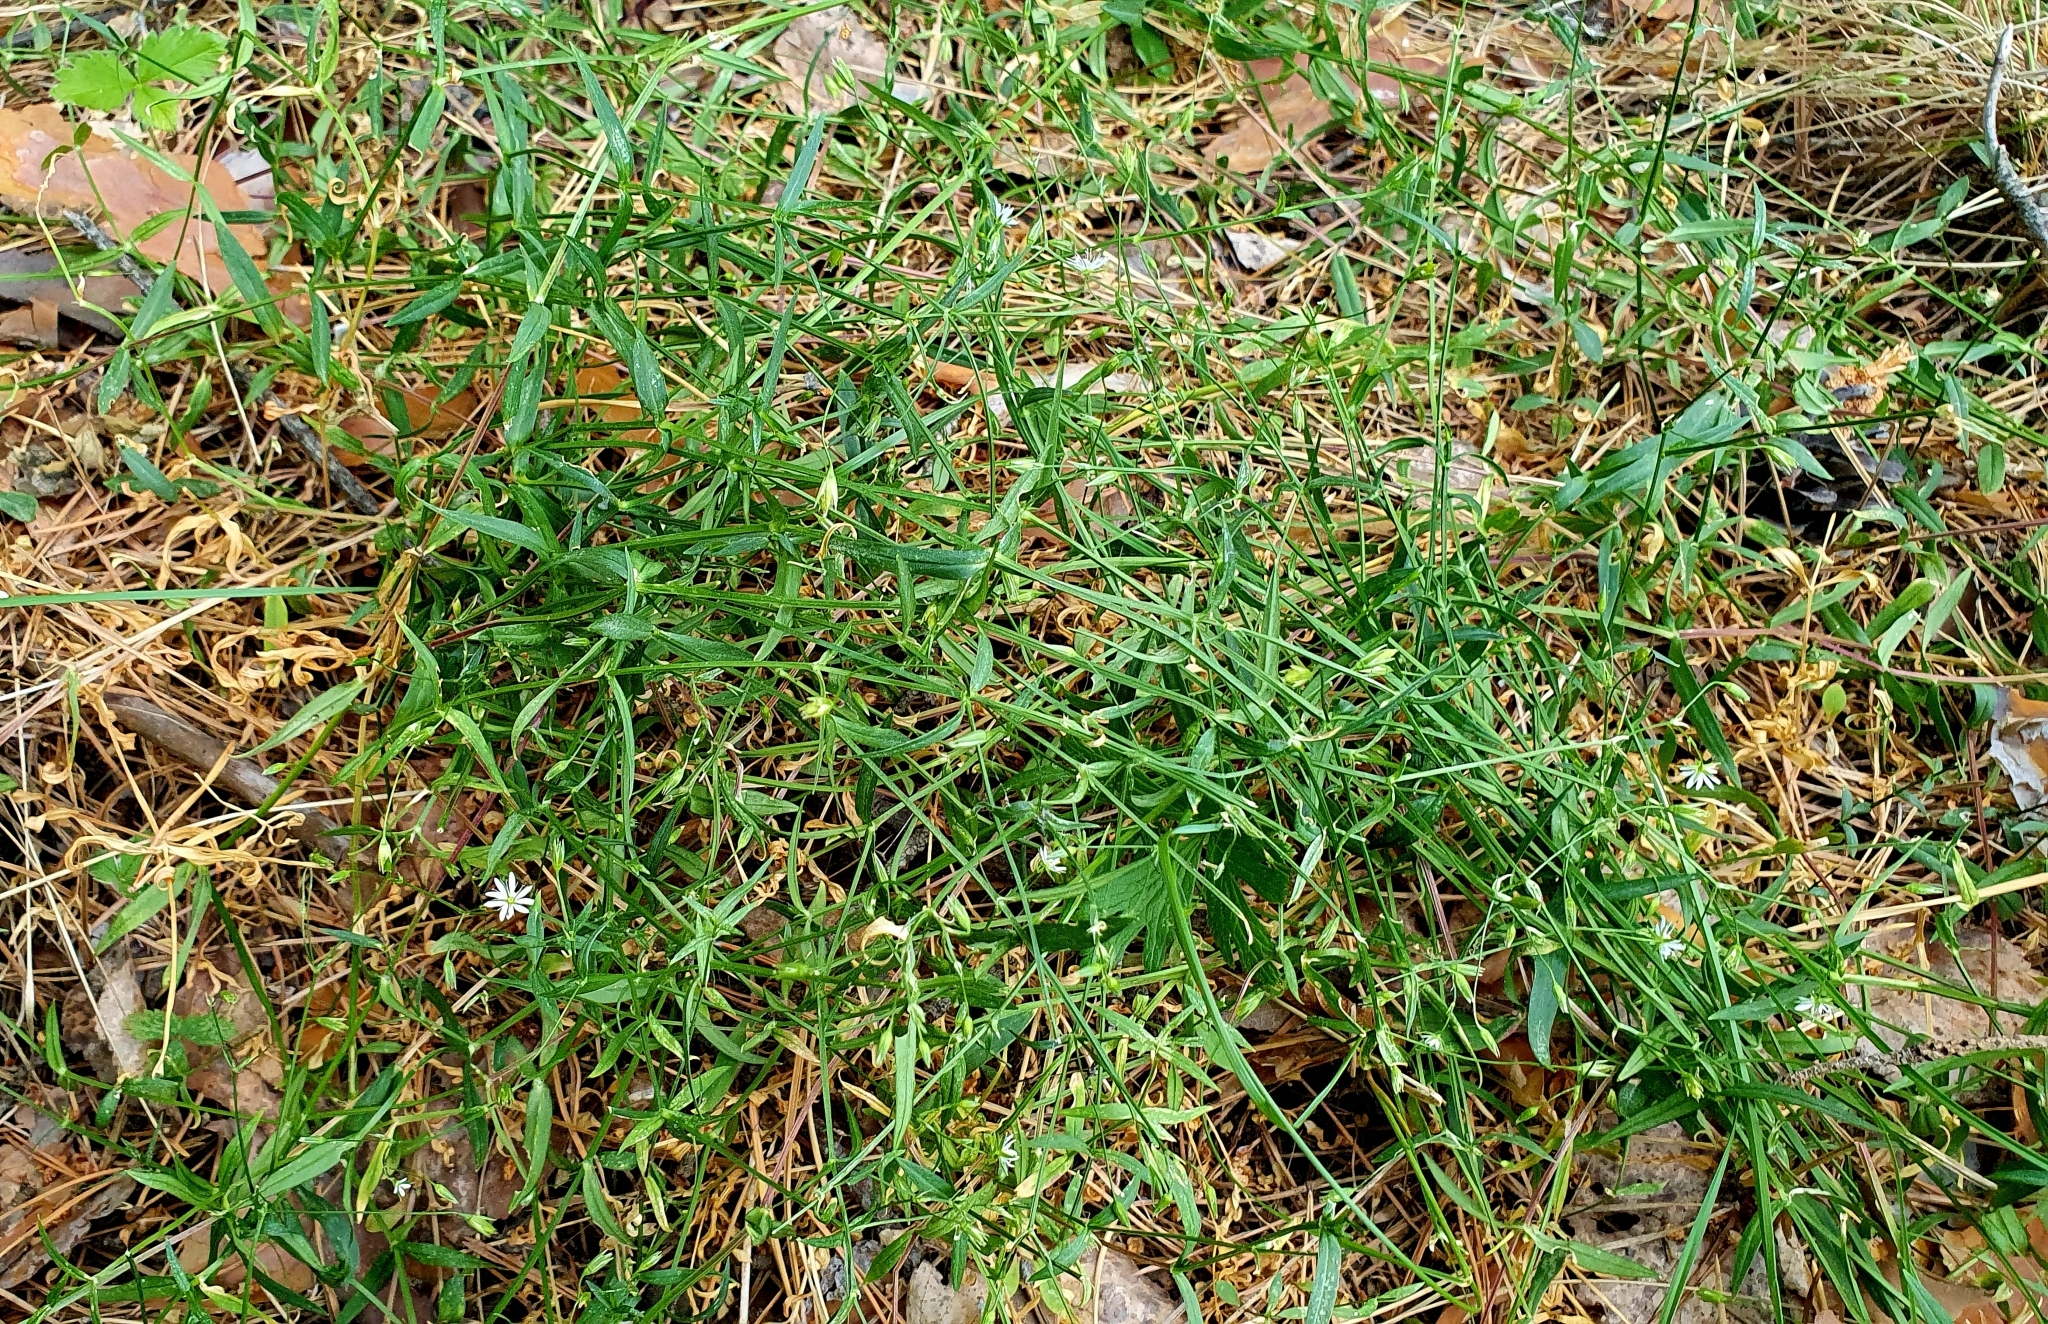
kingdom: Plantae
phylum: Tracheophyta
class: Magnoliopsida
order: Caryophyllales
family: Caryophyllaceae
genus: Stellaria
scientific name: Stellaria graminea
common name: Grass-like starwort
